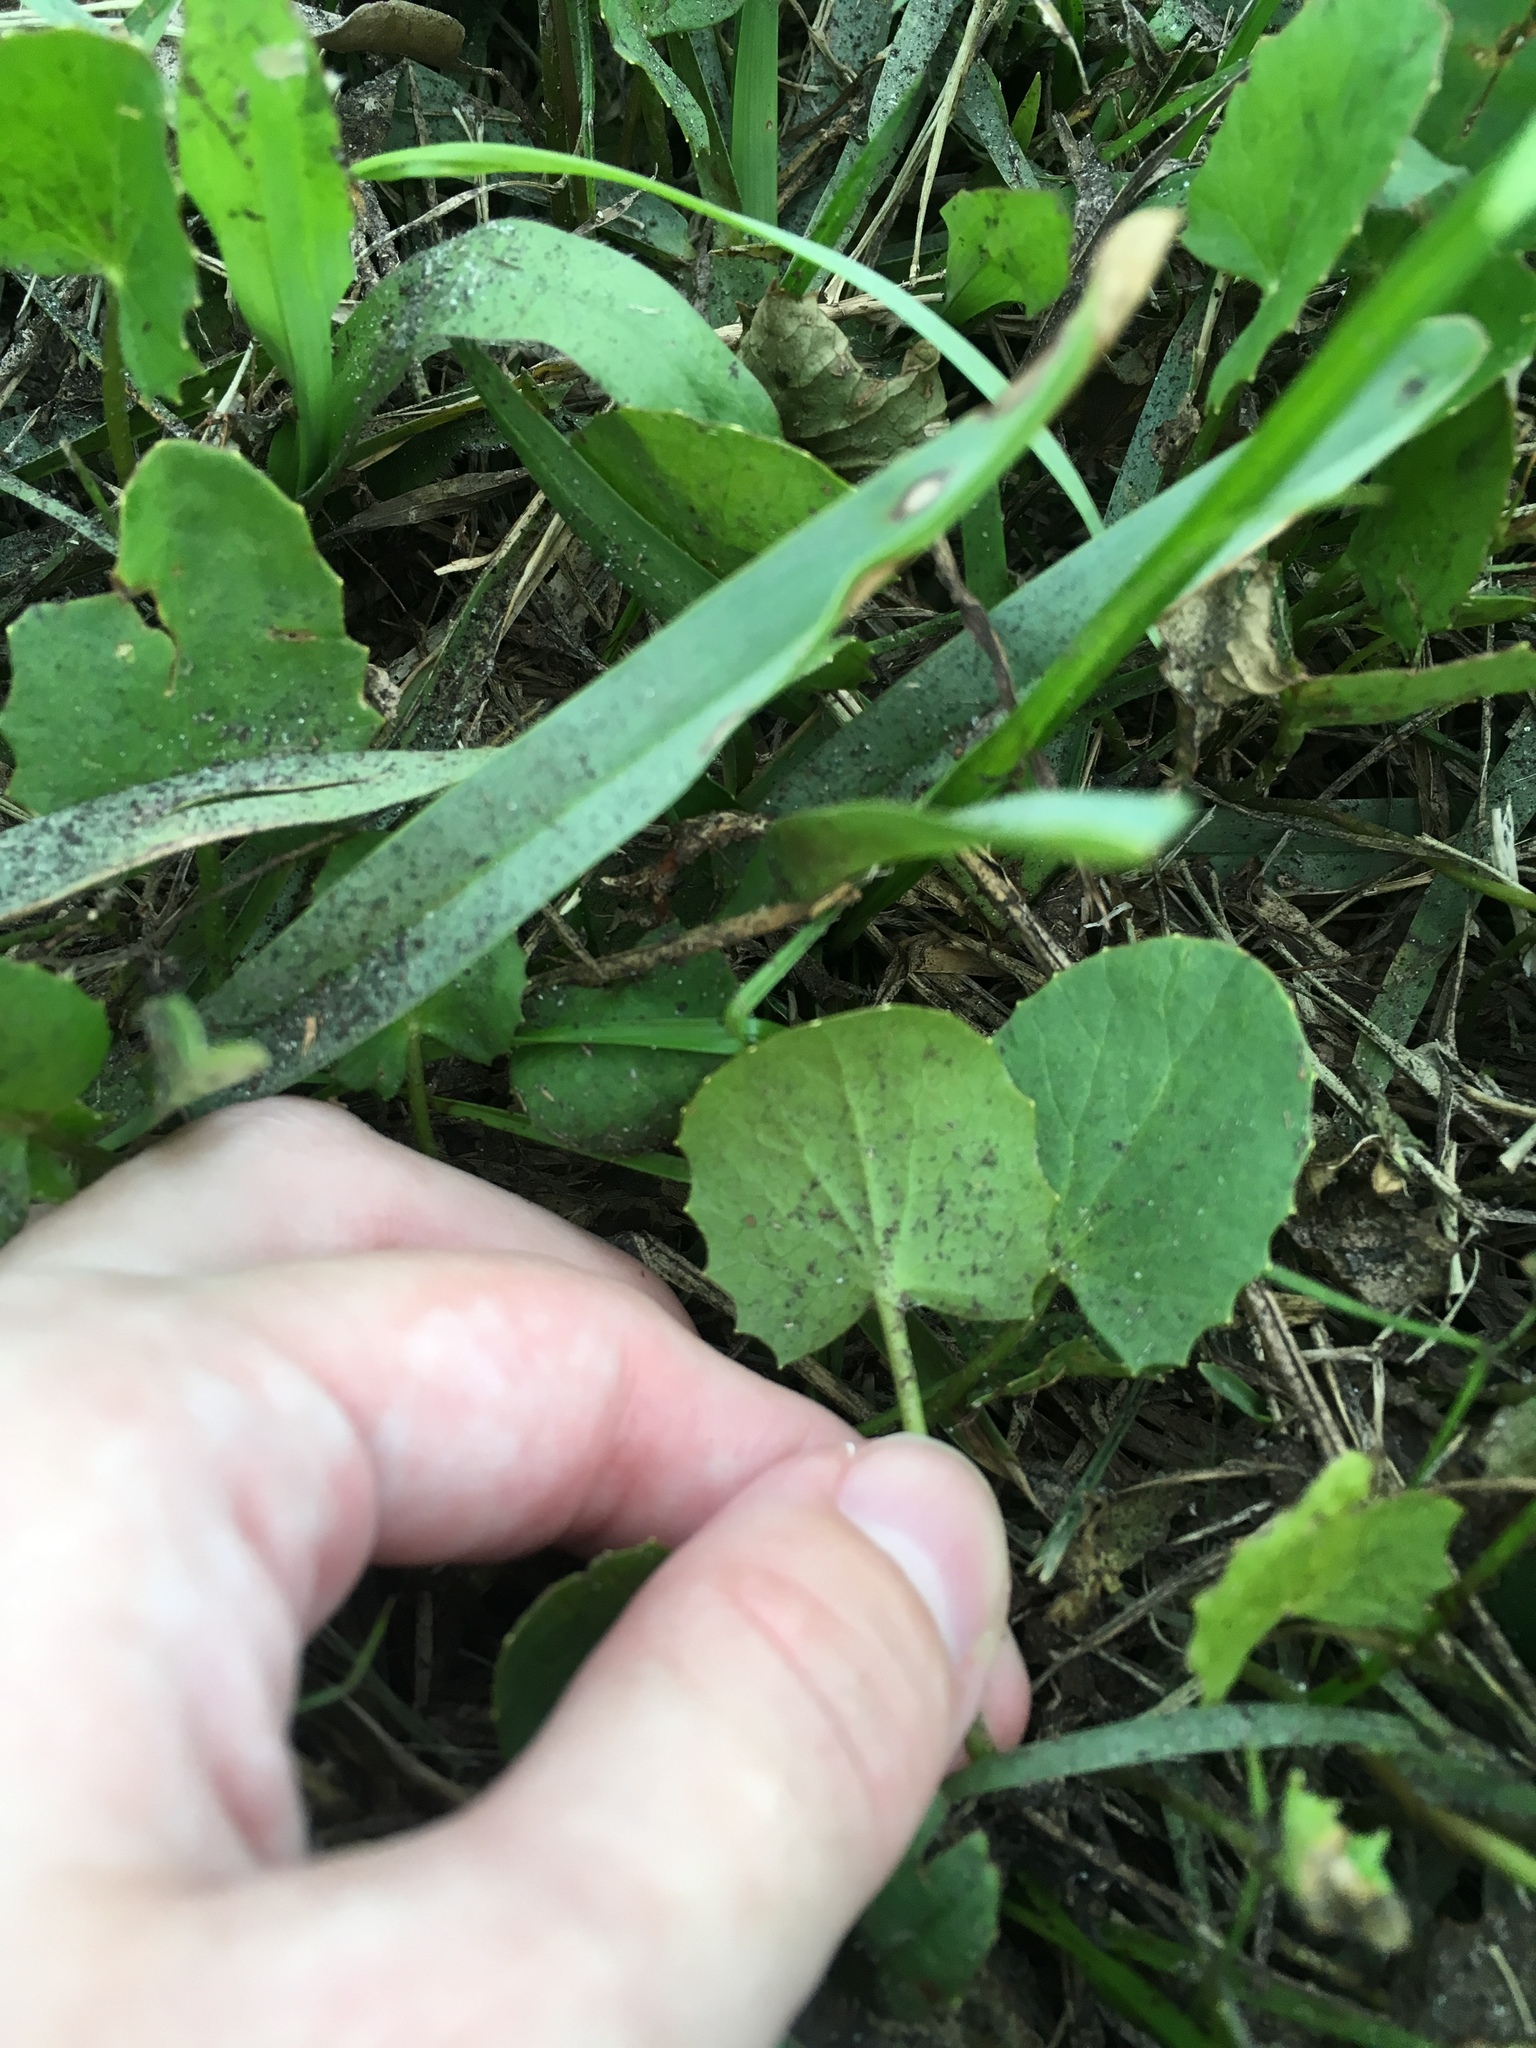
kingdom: Plantae
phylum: Tracheophyta
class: Magnoliopsida
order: Apiales
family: Apiaceae
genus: Centella
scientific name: Centella erecta
